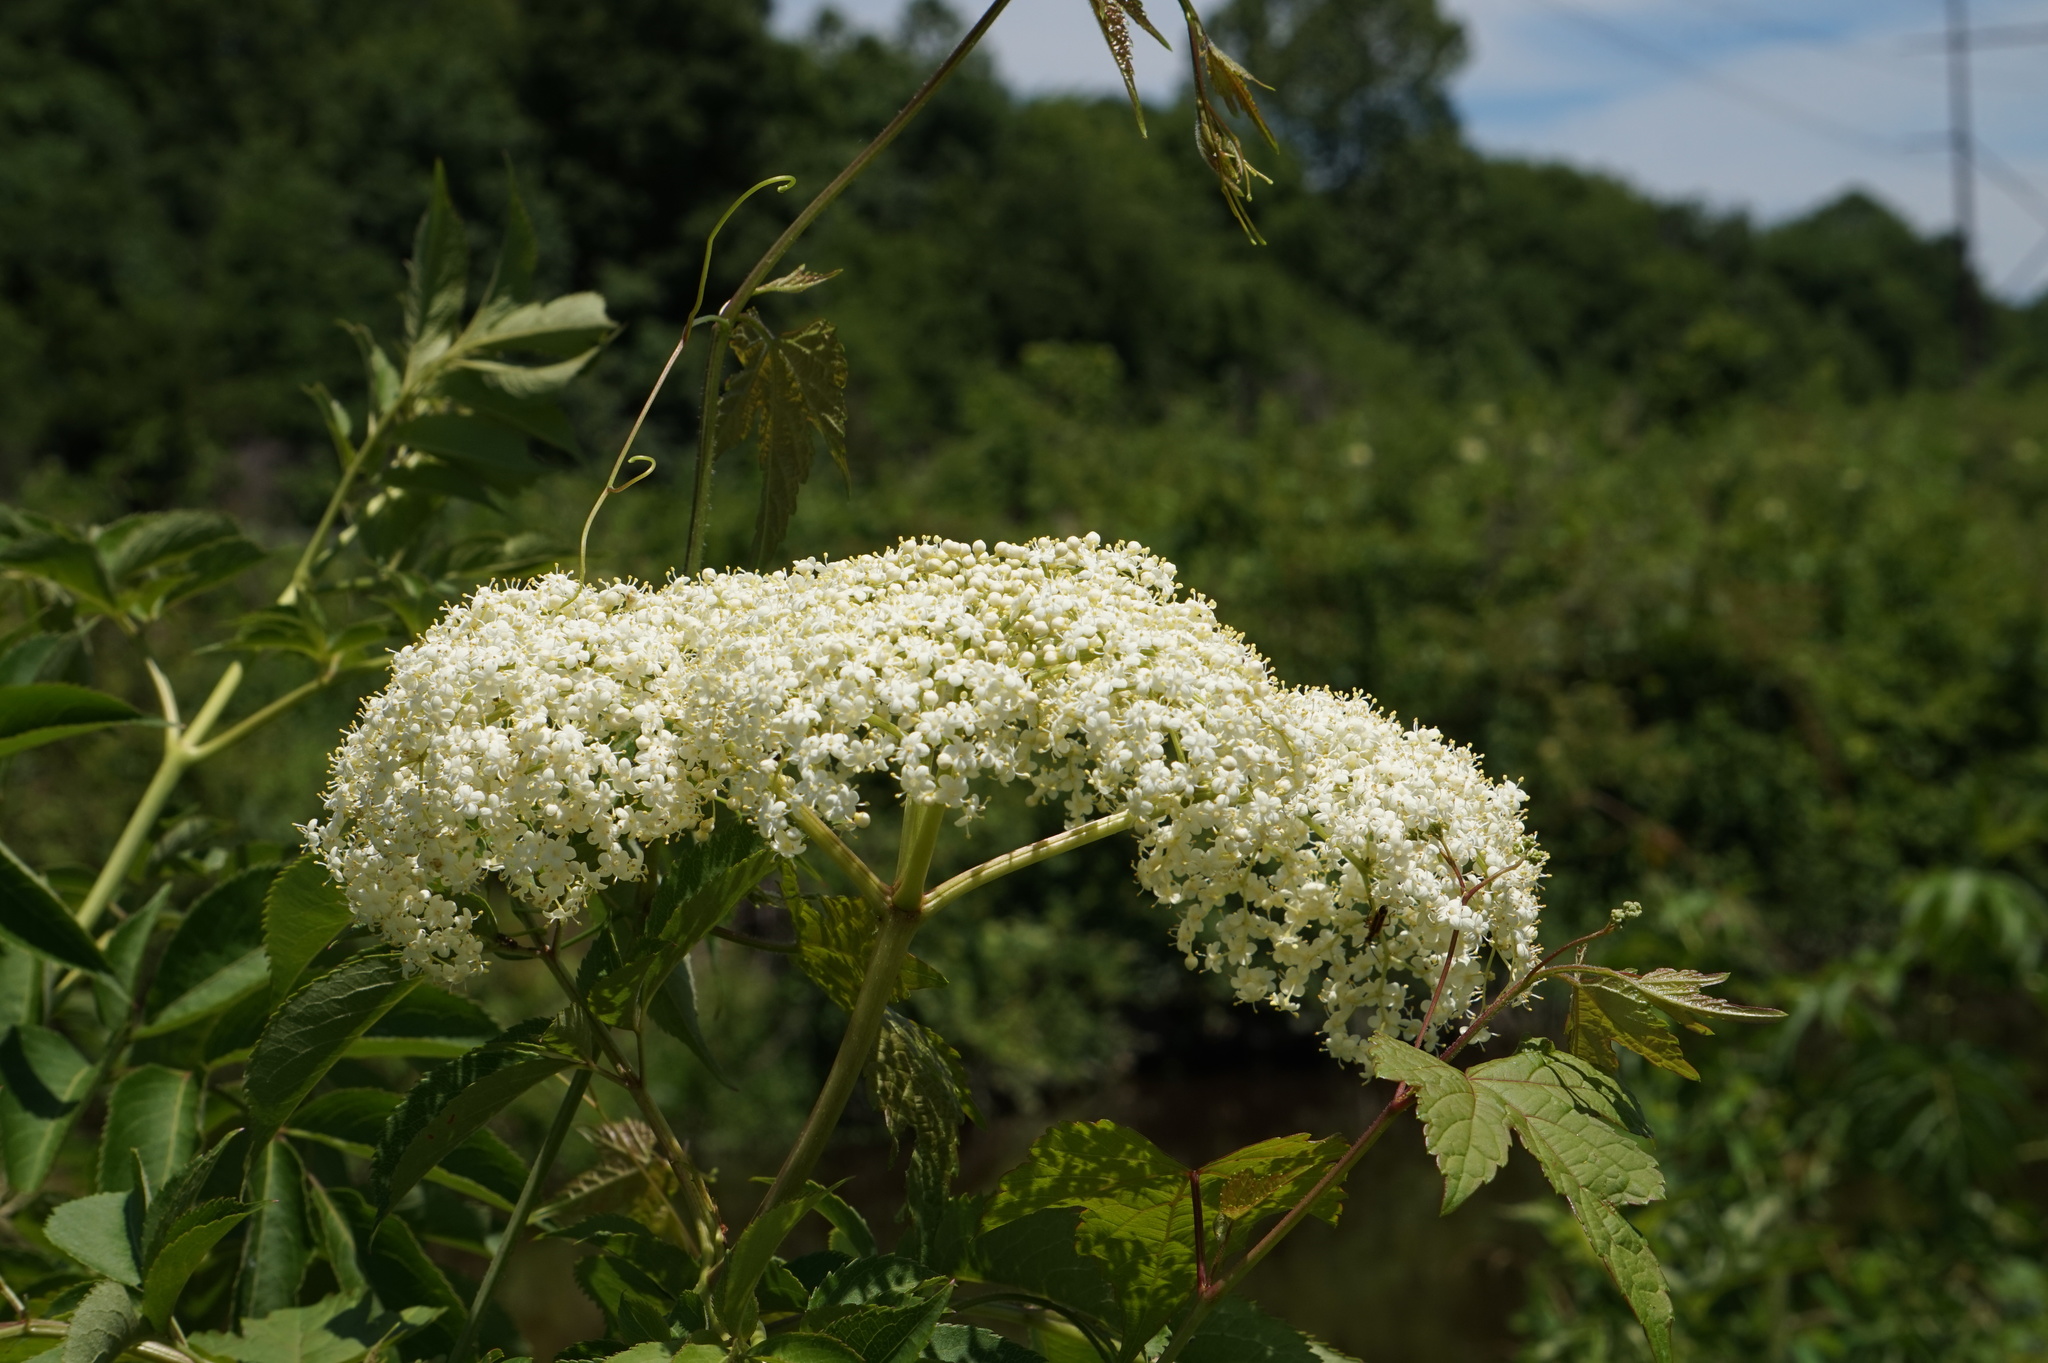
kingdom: Plantae
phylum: Tracheophyta
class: Magnoliopsida
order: Dipsacales
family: Viburnaceae
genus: Sambucus
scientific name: Sambucus canadensis
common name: American elder
